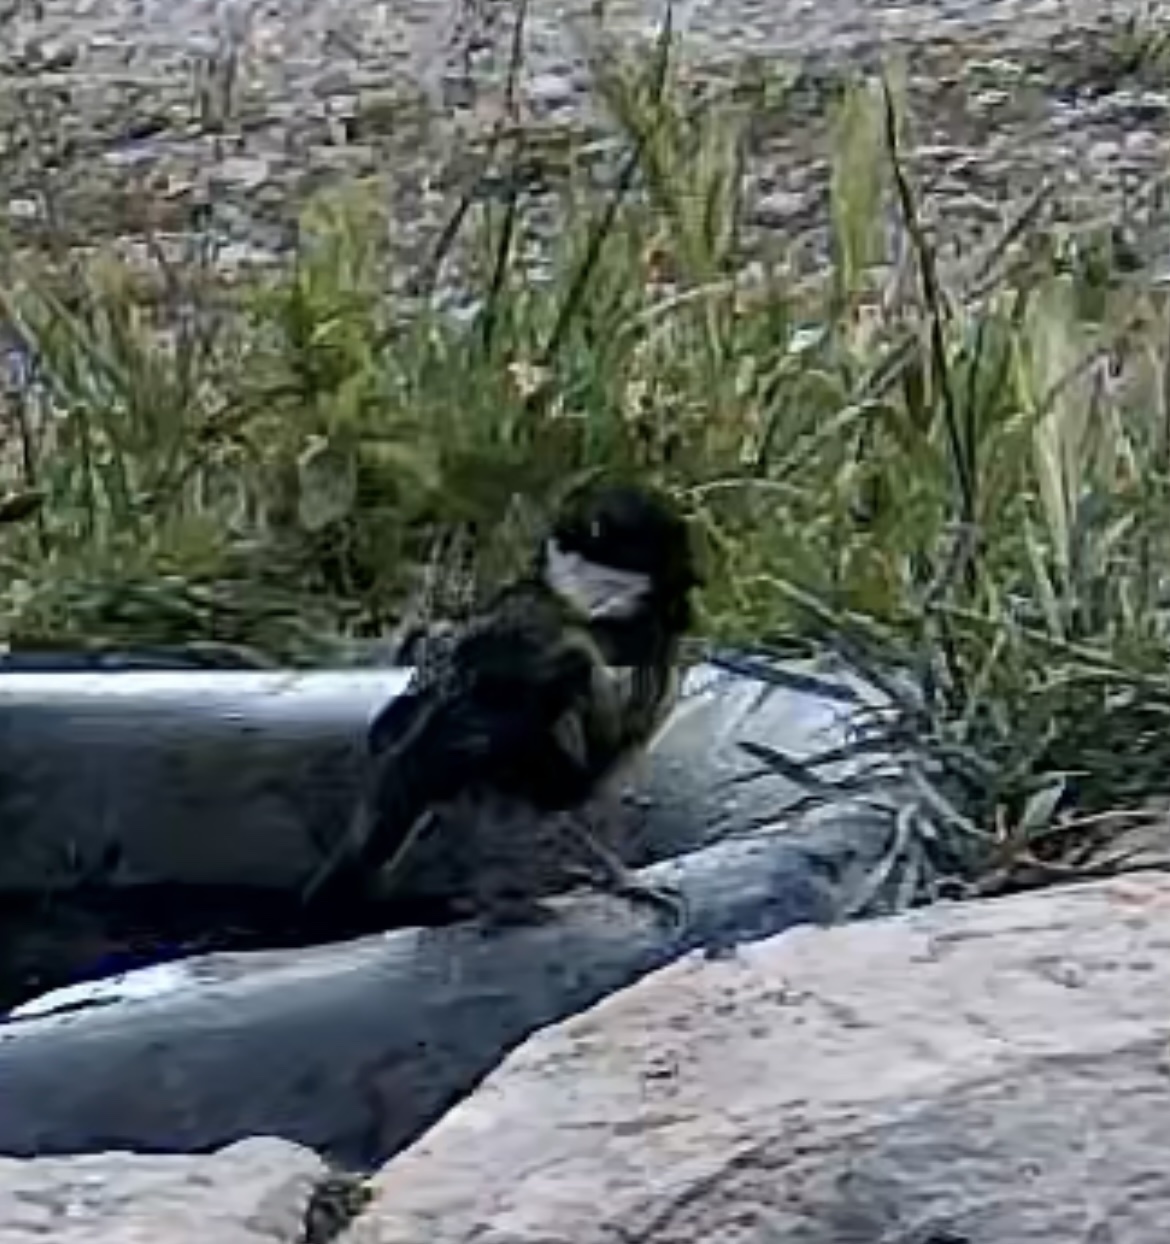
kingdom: Animalia
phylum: Chordata
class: Aves
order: Passeriformes
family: Paridae
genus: Parus
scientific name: Parus major
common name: Great tit
